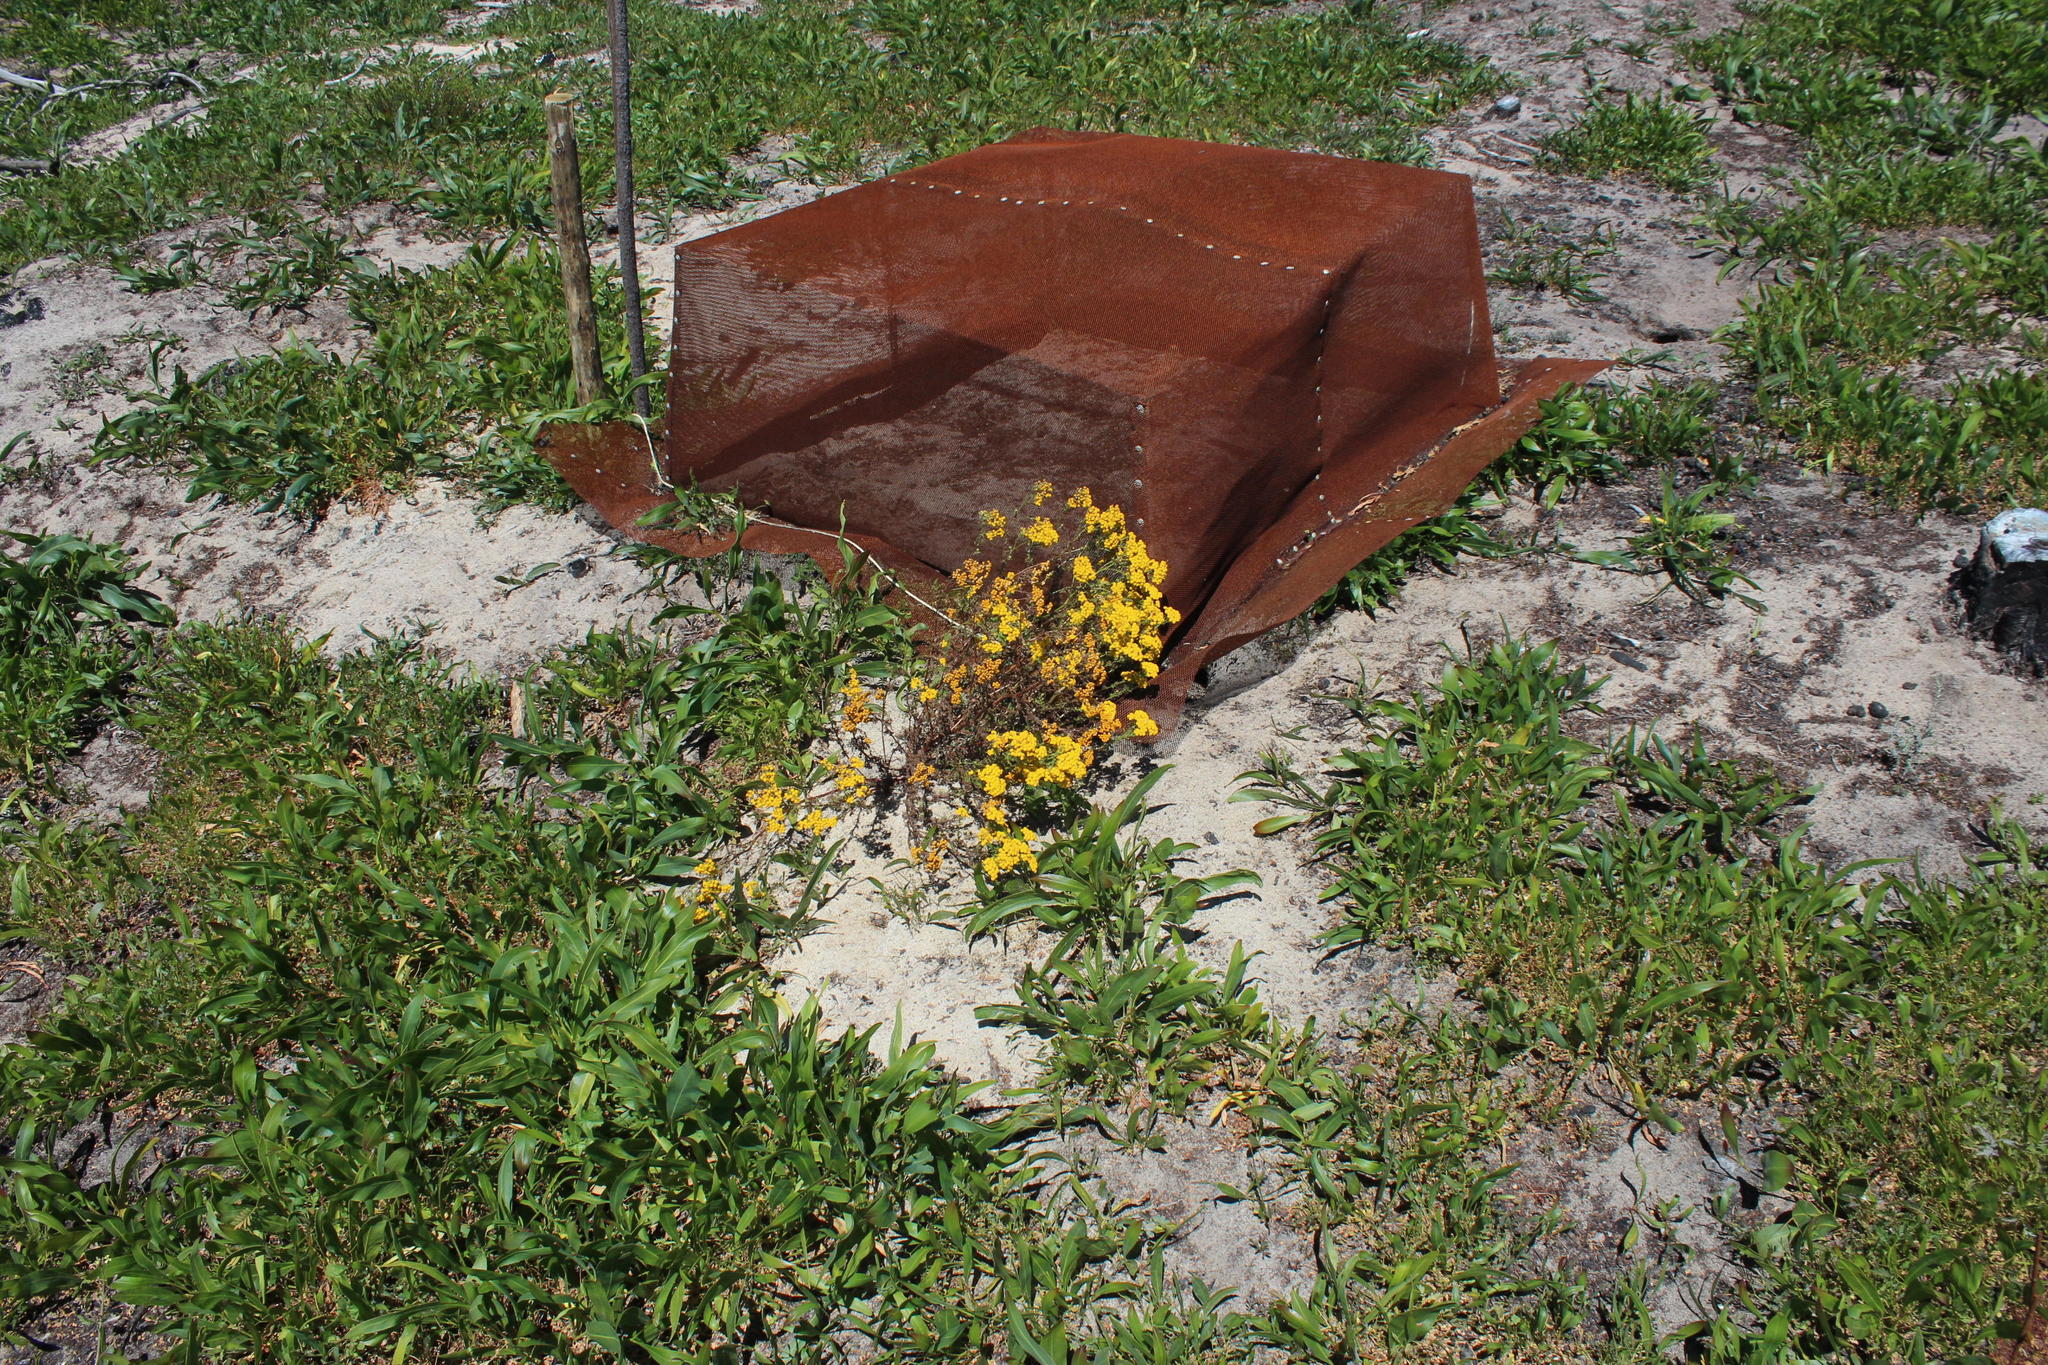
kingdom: Plantae
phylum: Tracheophyta
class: Magnoliopsida
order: Asterales
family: Asteraceae
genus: Oncosiphon
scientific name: Oncosiphon suffruticosus
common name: Shrubby mayweed
